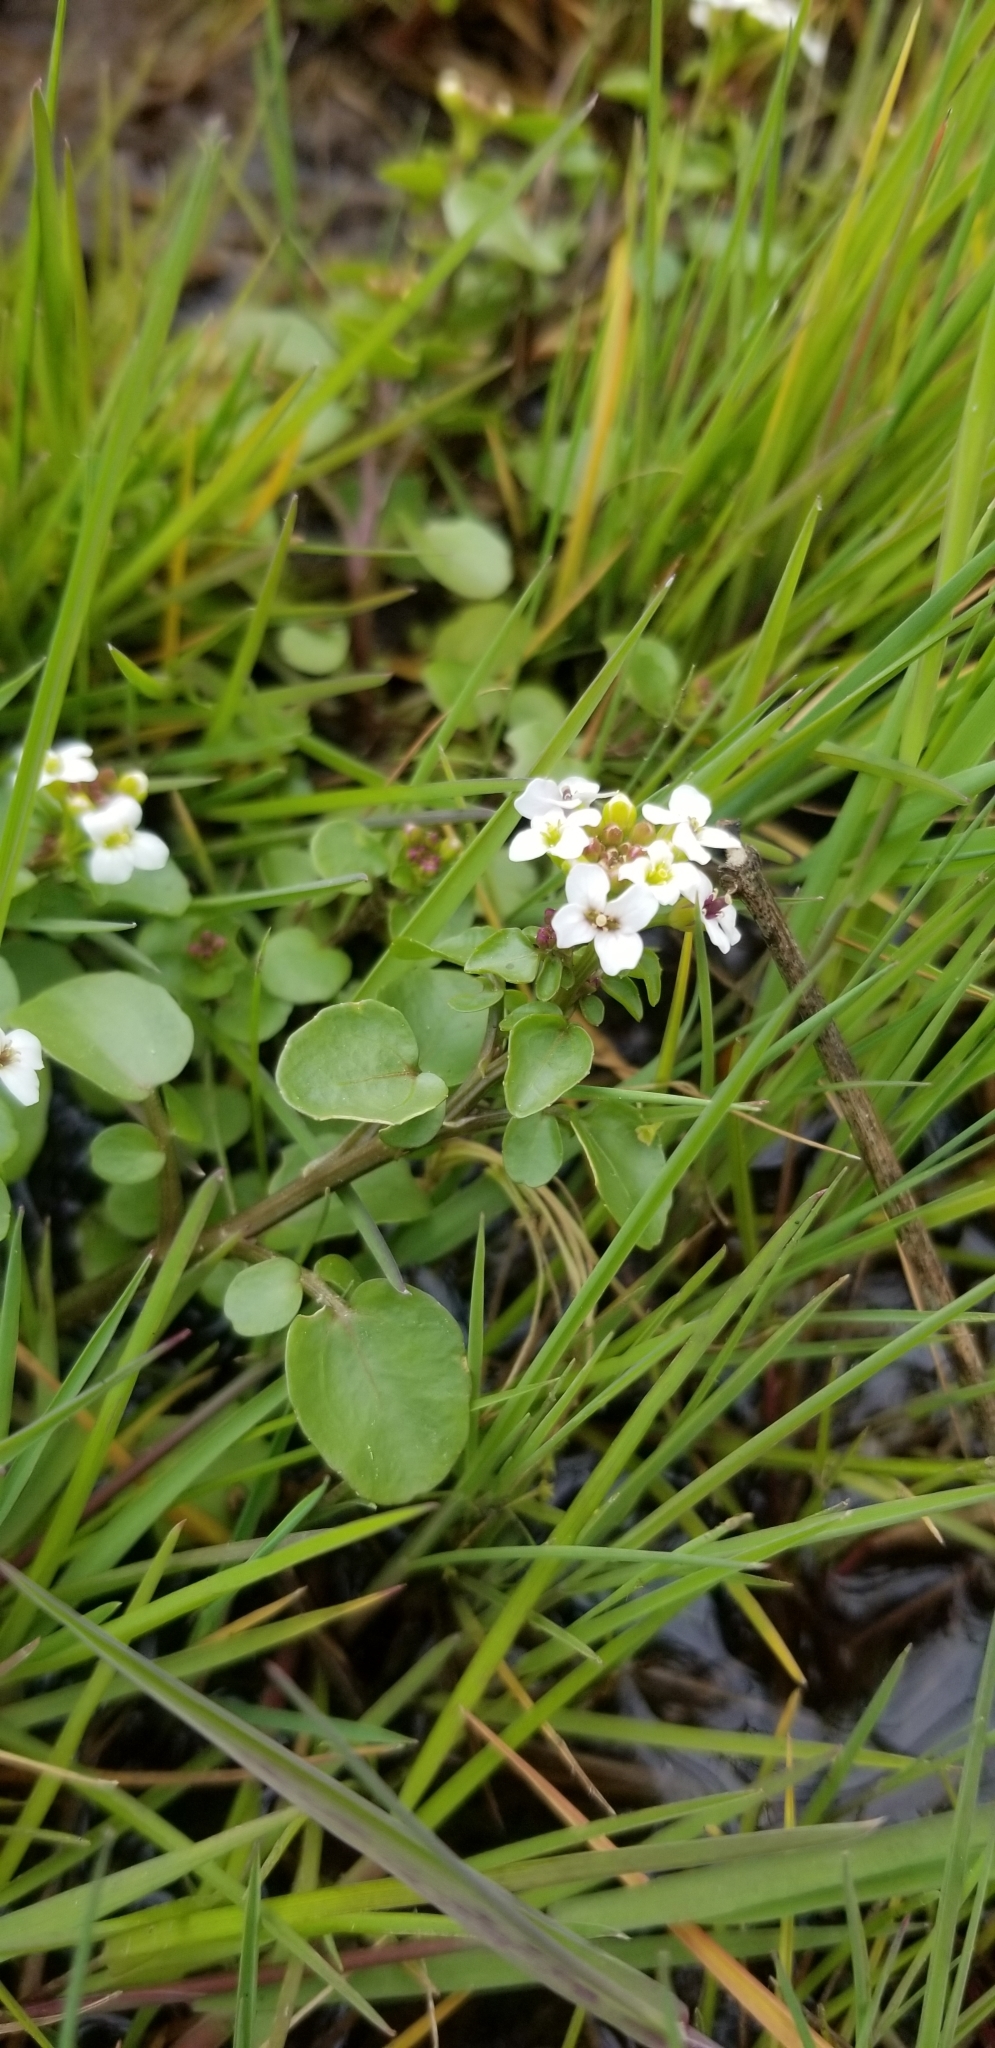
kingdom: Plantae
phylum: Tracheophyta
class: Magnoliopsida
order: Brassicales
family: Brassicaceae
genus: Nasturtium
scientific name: Nasturtium officinale
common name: Watercress
